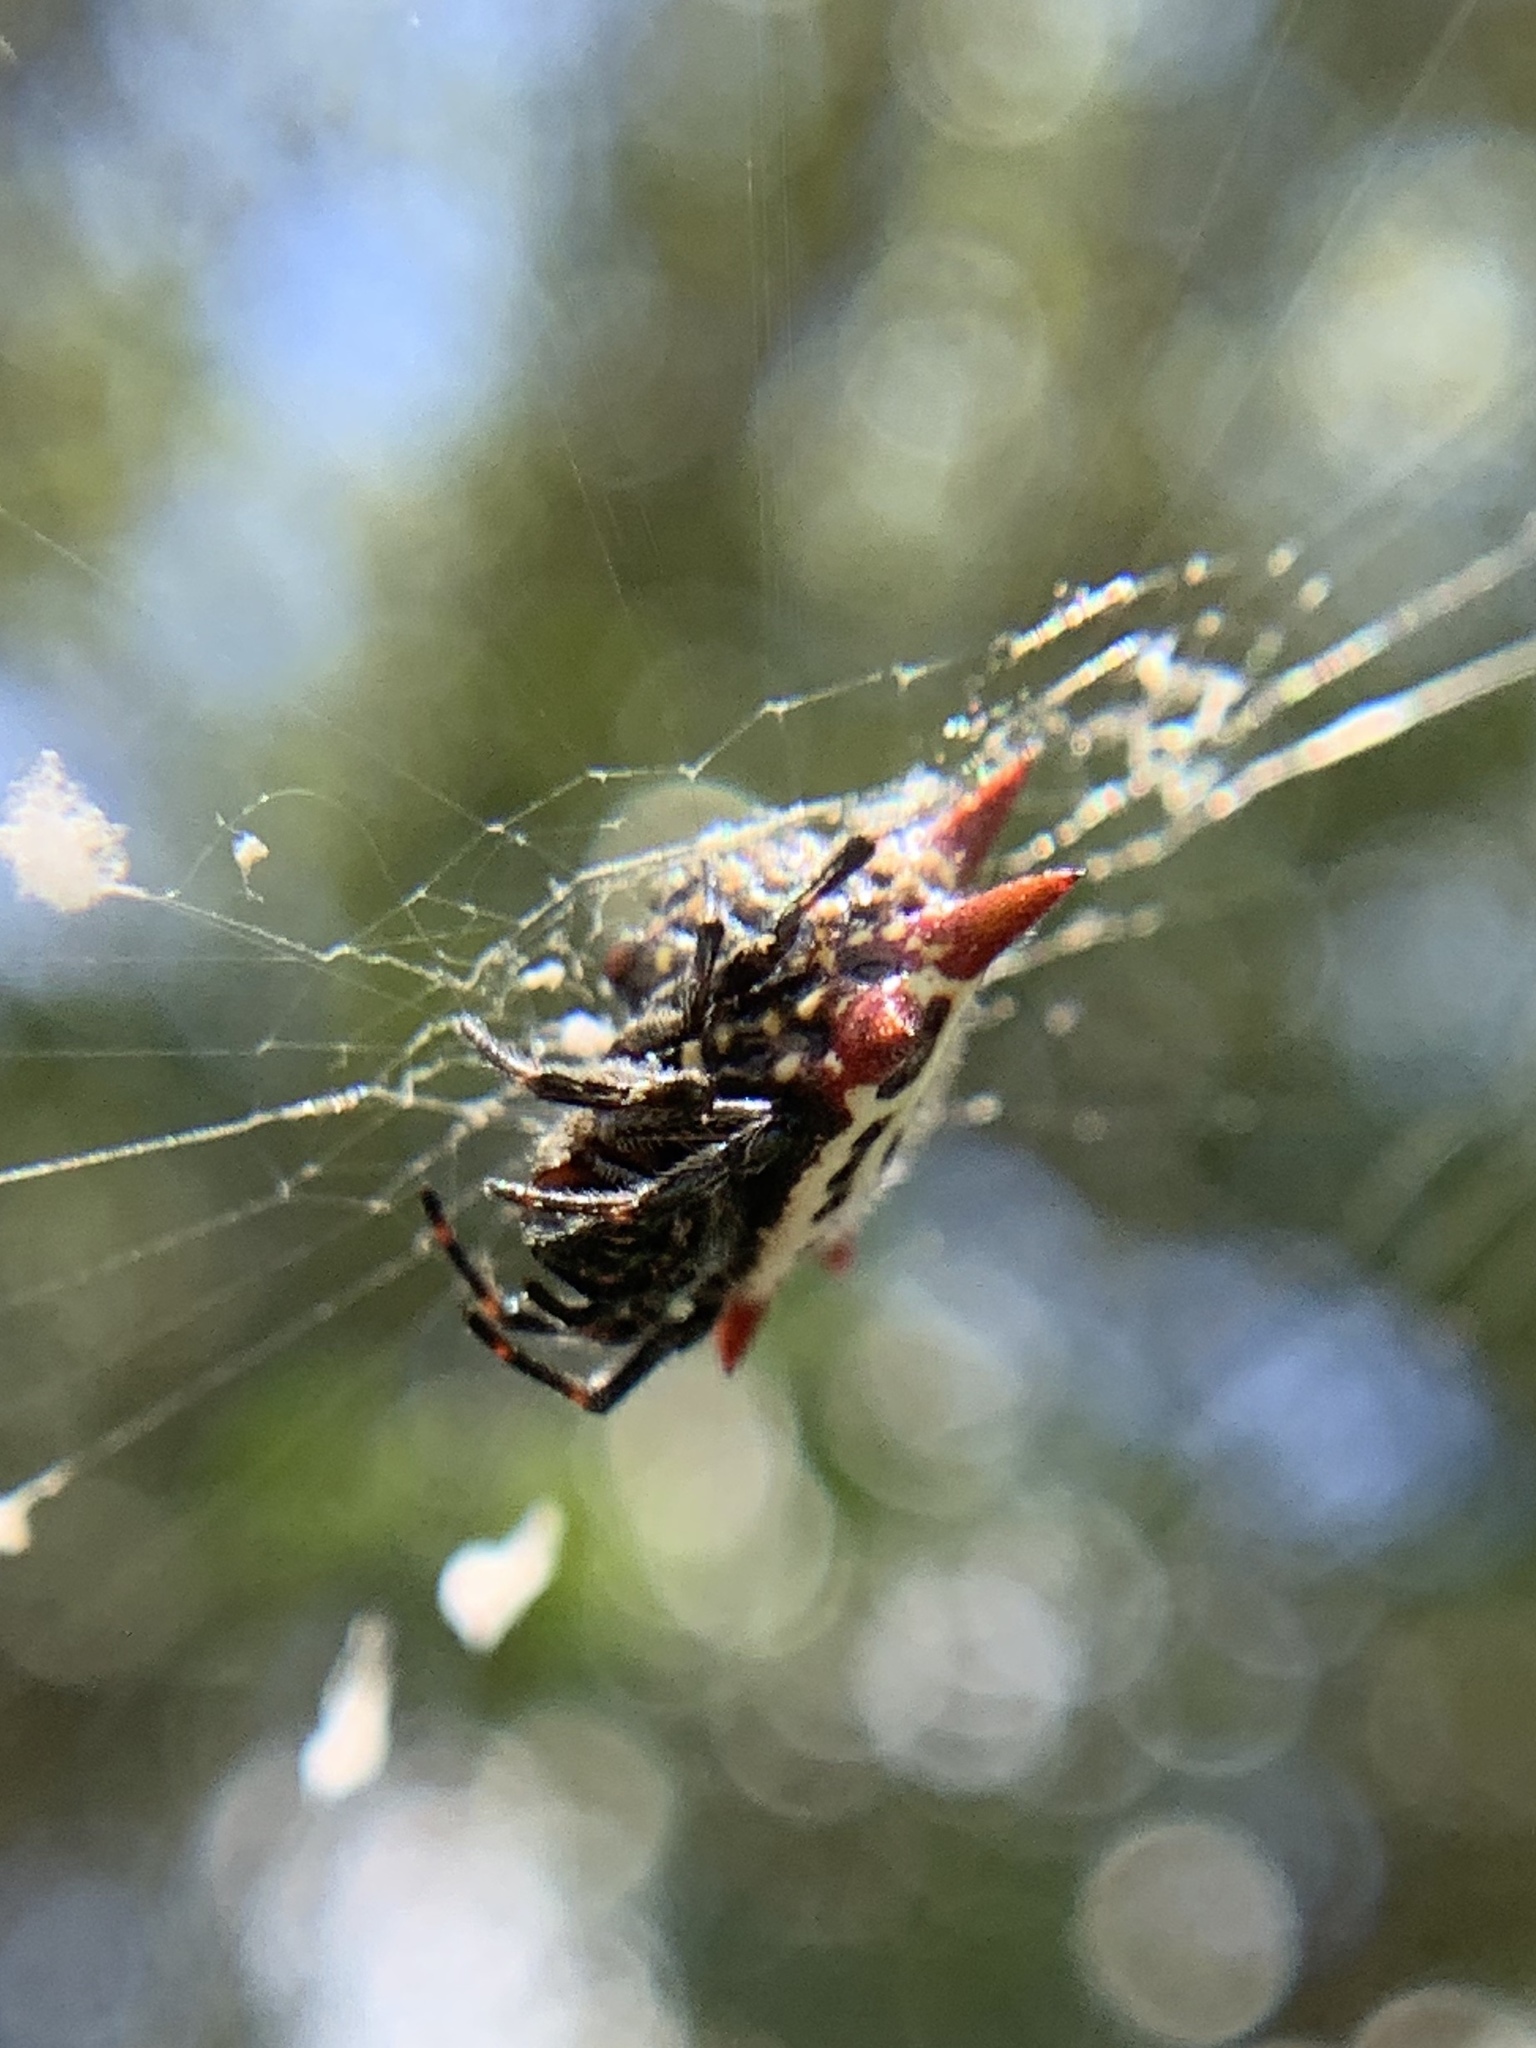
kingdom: Animalia
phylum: Arthropoda
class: Arachnida
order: Araneae
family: Araneidae
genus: Gasteracantha
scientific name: Gasteracantha cancriformis
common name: Orb weavers
